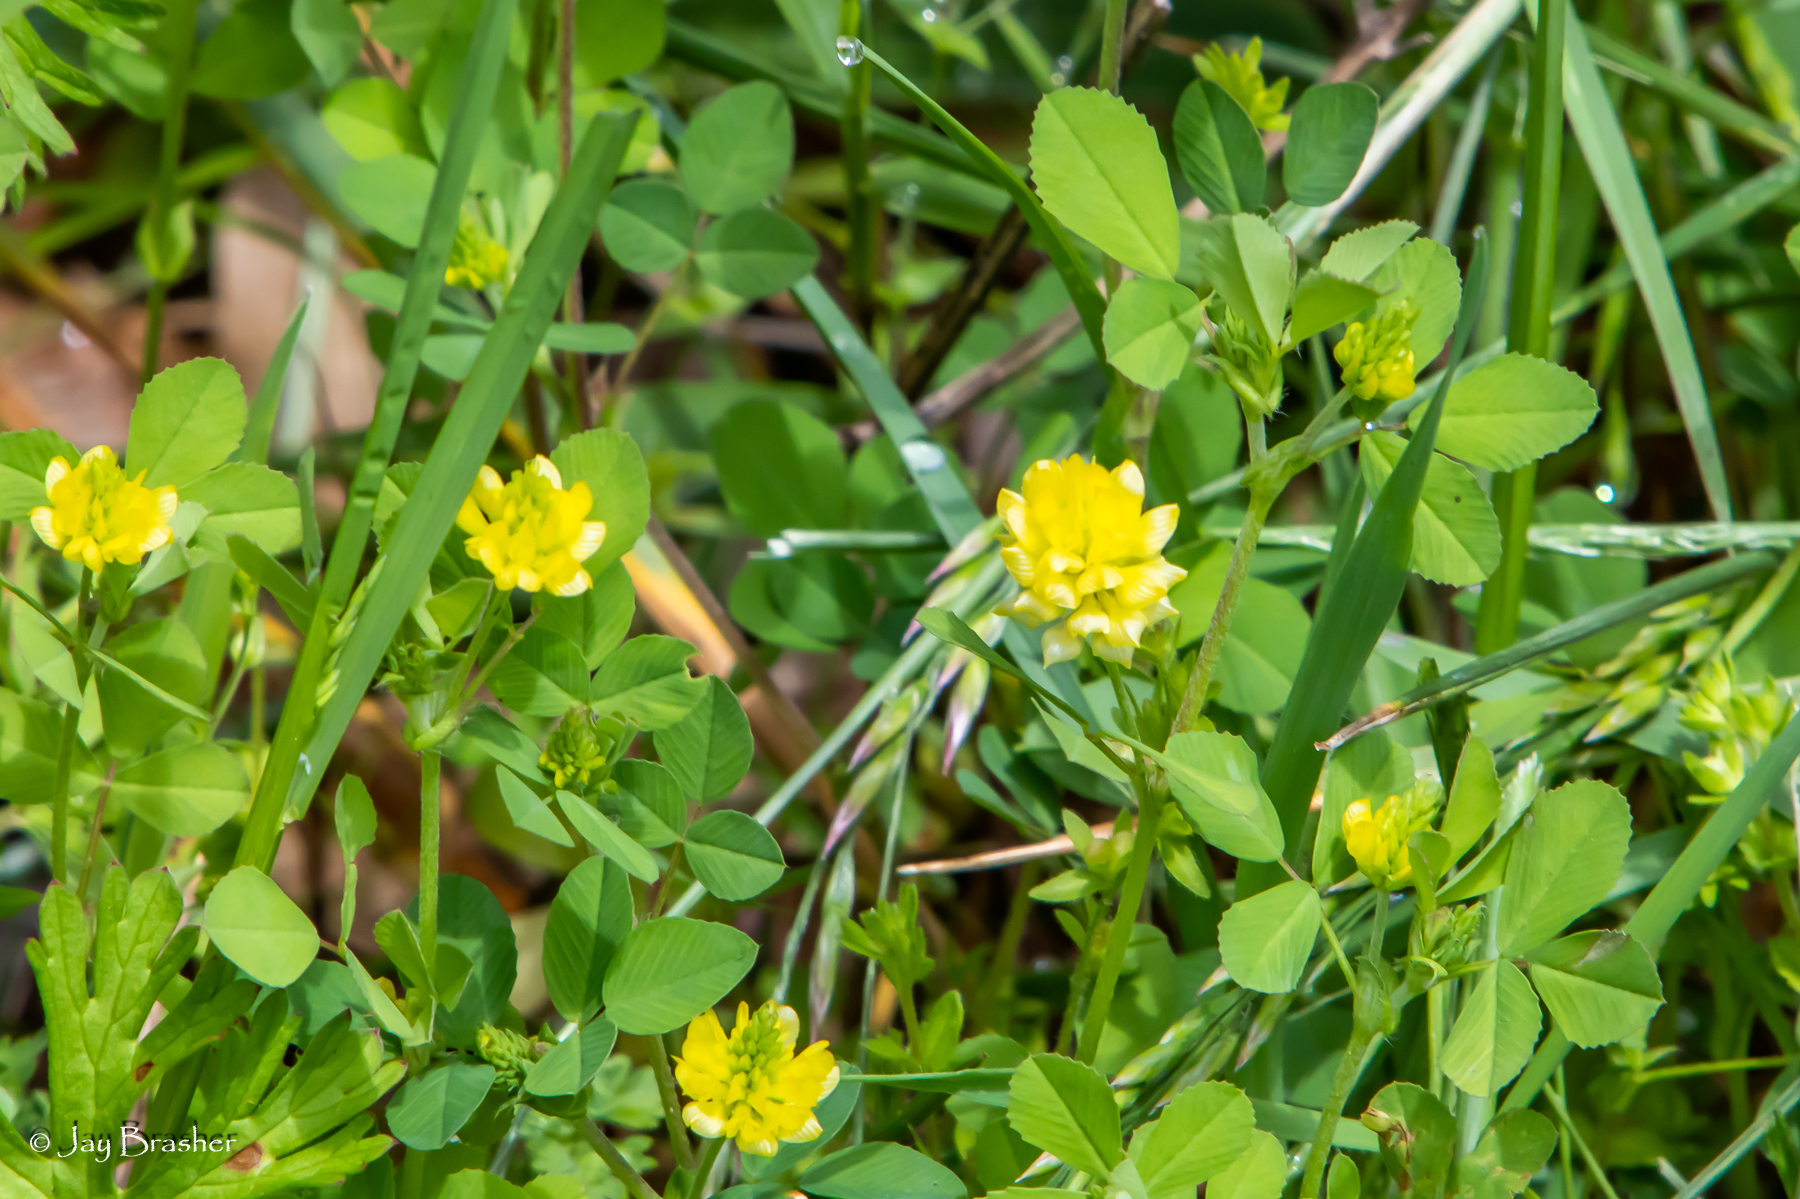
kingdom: Plantae
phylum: Tracheophyta
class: Magnoliopsida
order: Fabales
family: Fabaceae
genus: Trifolium
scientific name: Trifolium campestre
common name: Field clover
